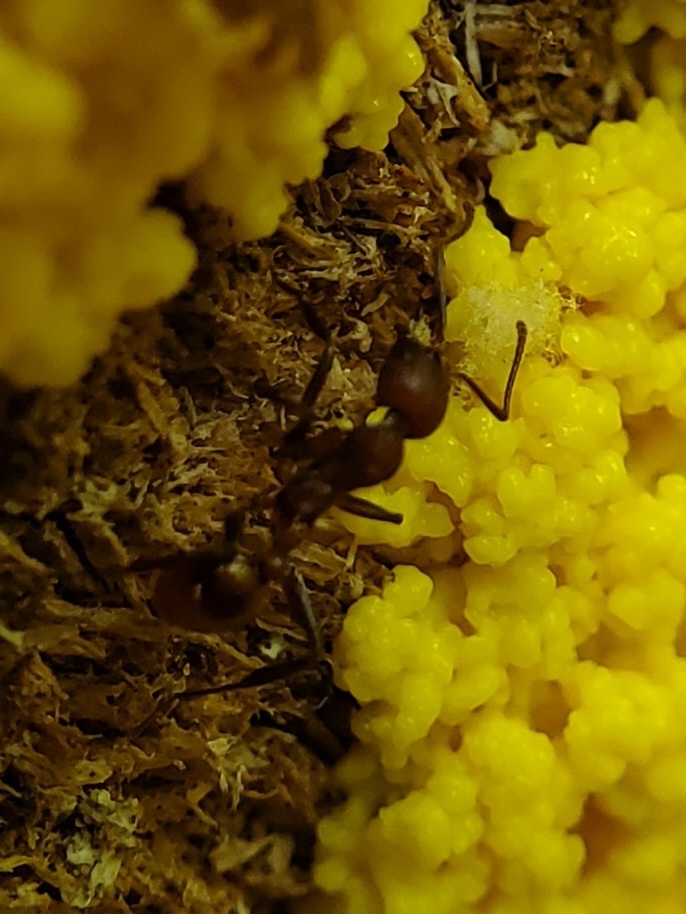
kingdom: Animalia
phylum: Arthropoda
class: Insecta
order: Hymenoptera
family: Formicidae
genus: Aphaenogaster
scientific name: Aphaenogaster tennesseensis
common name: Tennessee thread-waisted ant
